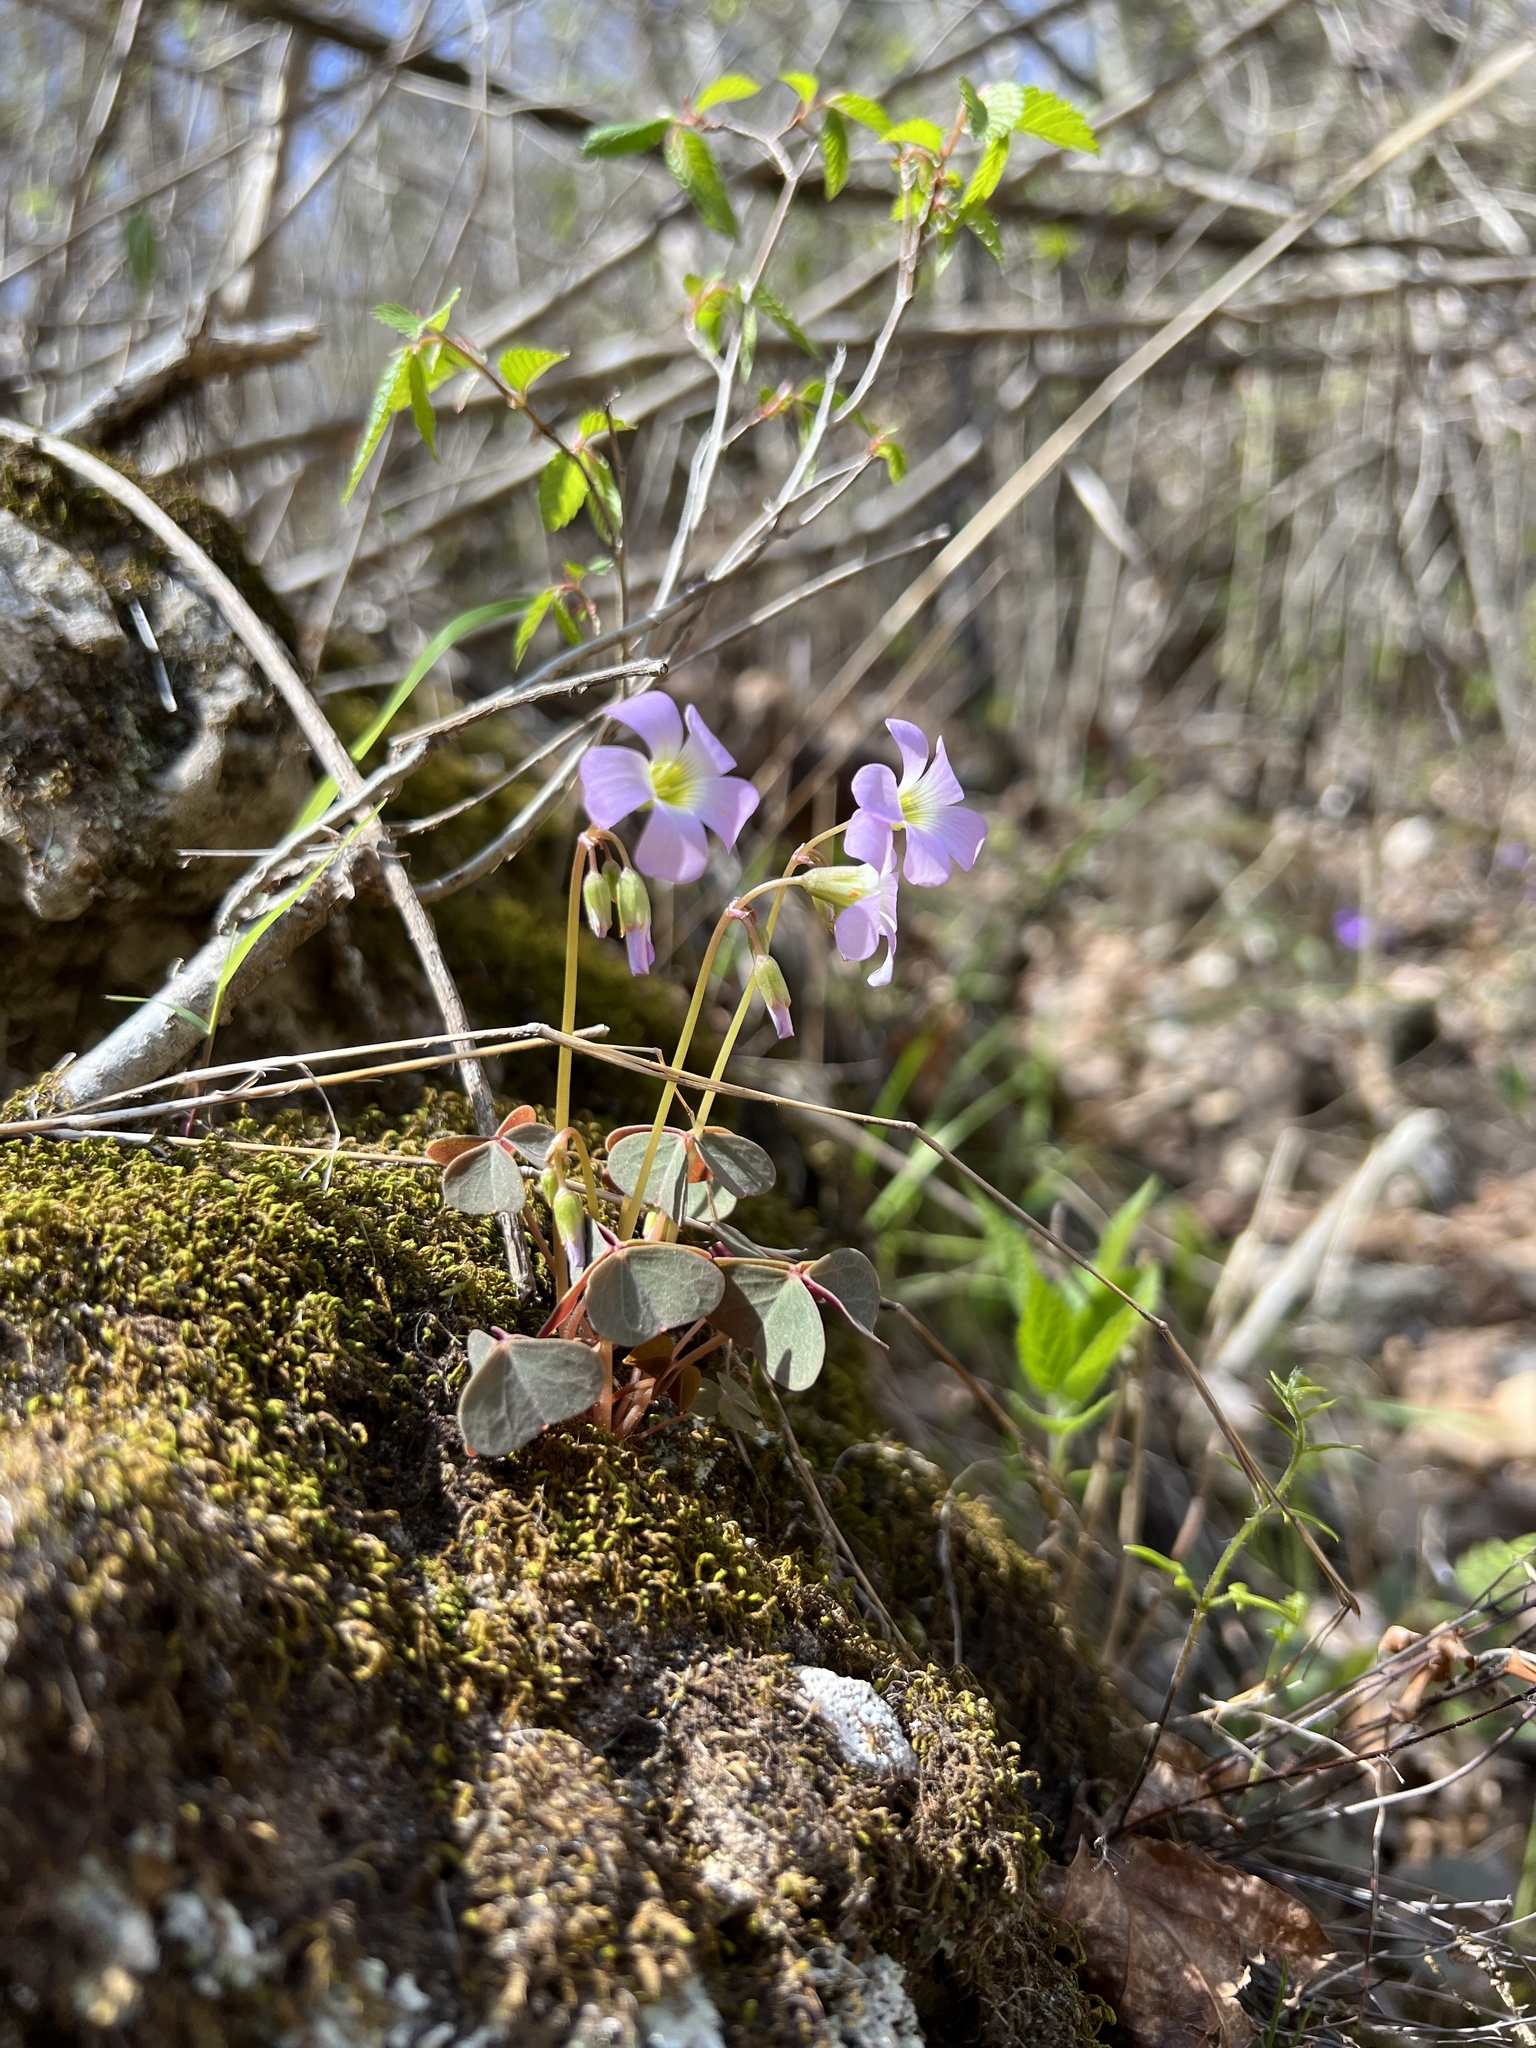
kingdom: Plantae
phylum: Tracheophyta
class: Magnoliopsida
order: Oxalidales
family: Oxalidaceae
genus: Oxalis
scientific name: Oxalis violacea
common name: Violet wood-sorrel
